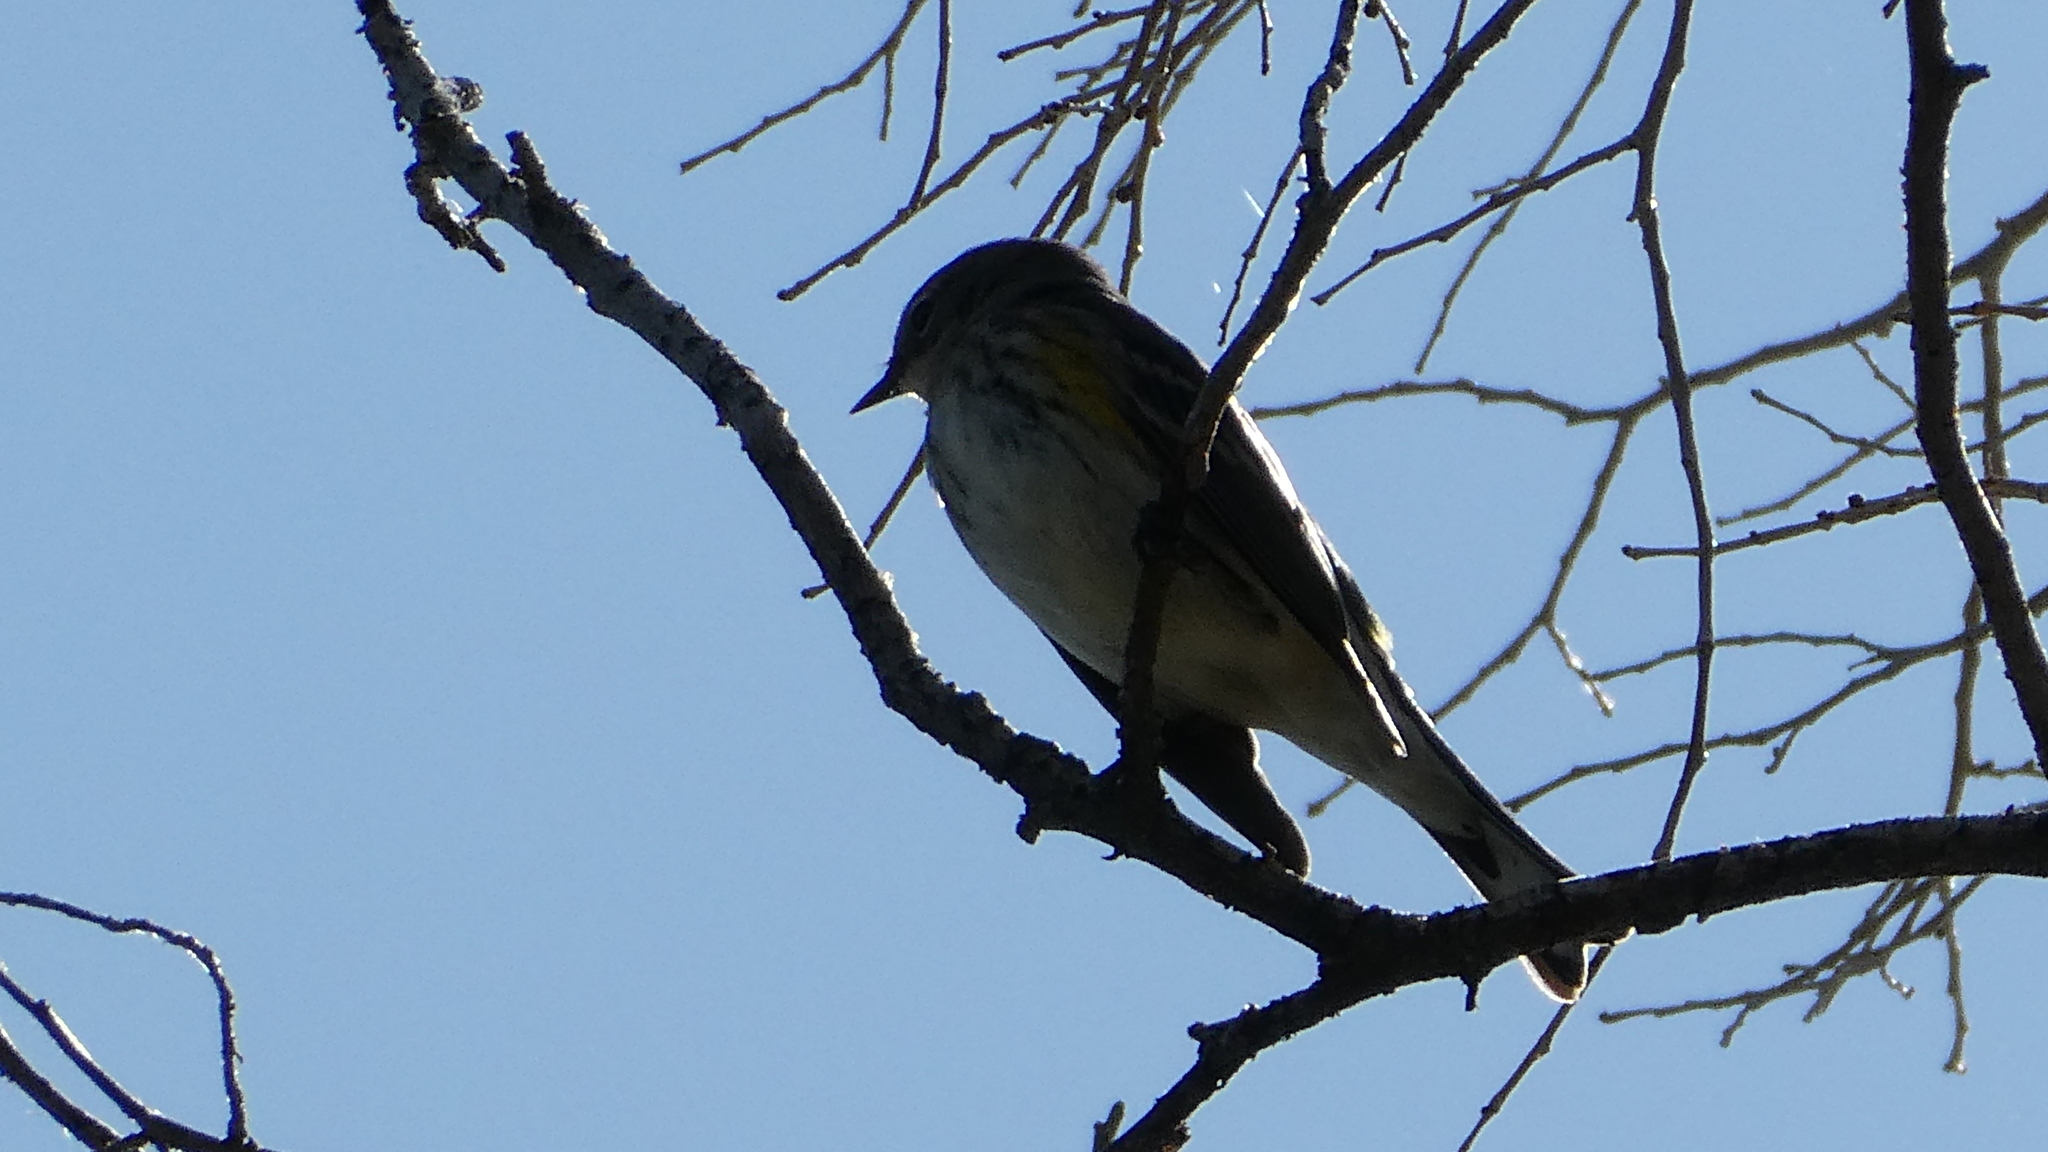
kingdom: Animalia
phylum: Chordata
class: Aves
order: Passeriformes
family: Parulidae
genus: Setophaga
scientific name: Setophaga coronata
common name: Myrtle warbler
